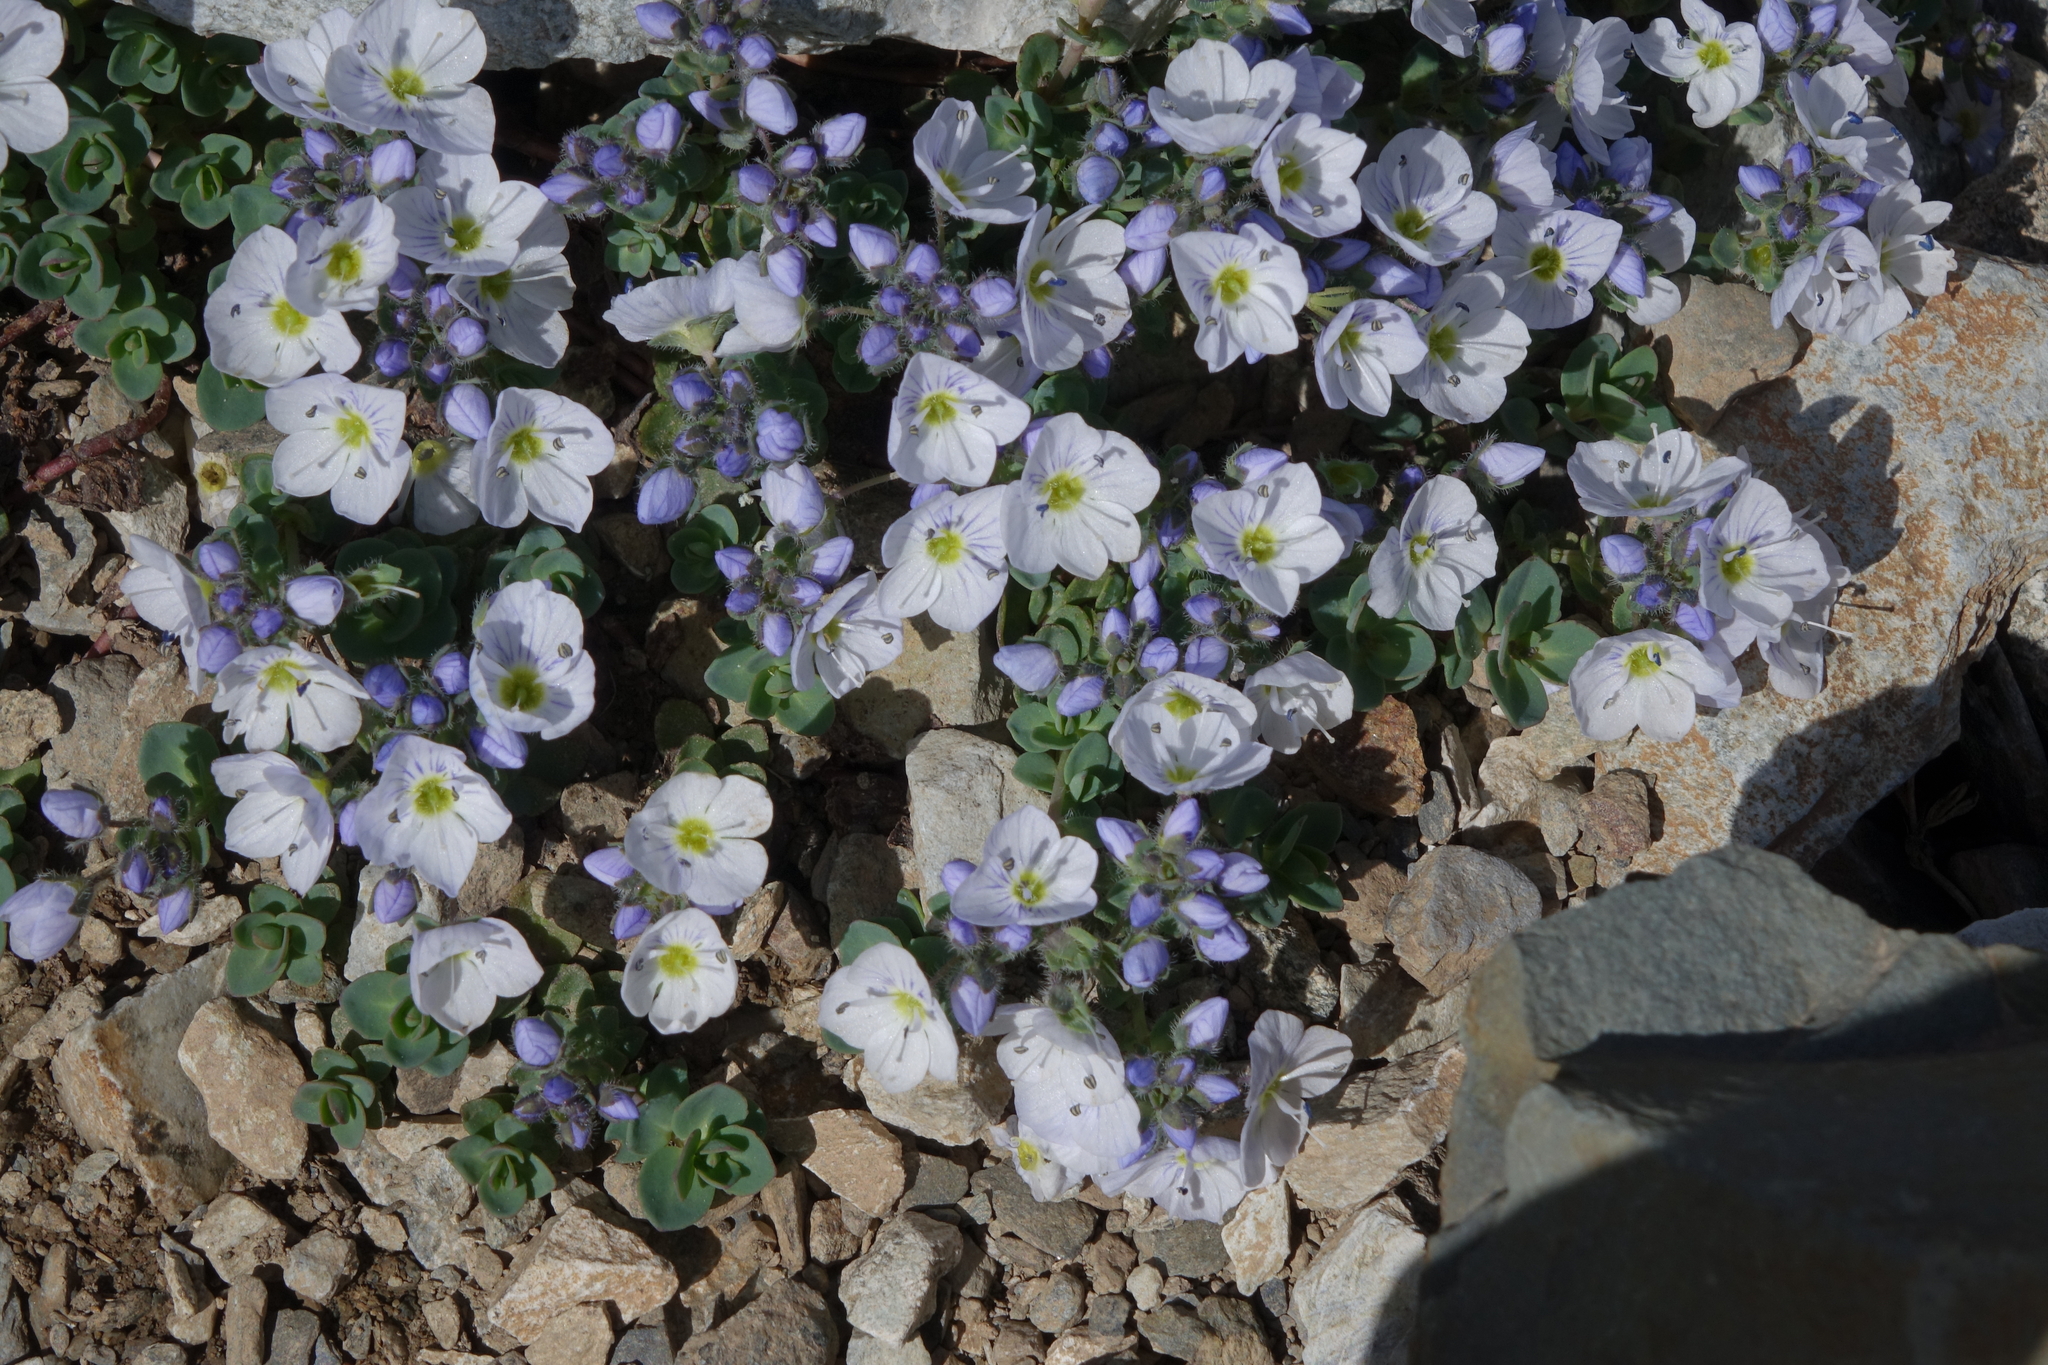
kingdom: Plantae
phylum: Tracheophyta
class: Magnoliopsida
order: Lamiales
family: Plantaginaceae
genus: Veronica
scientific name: Veronica telephiifolia
